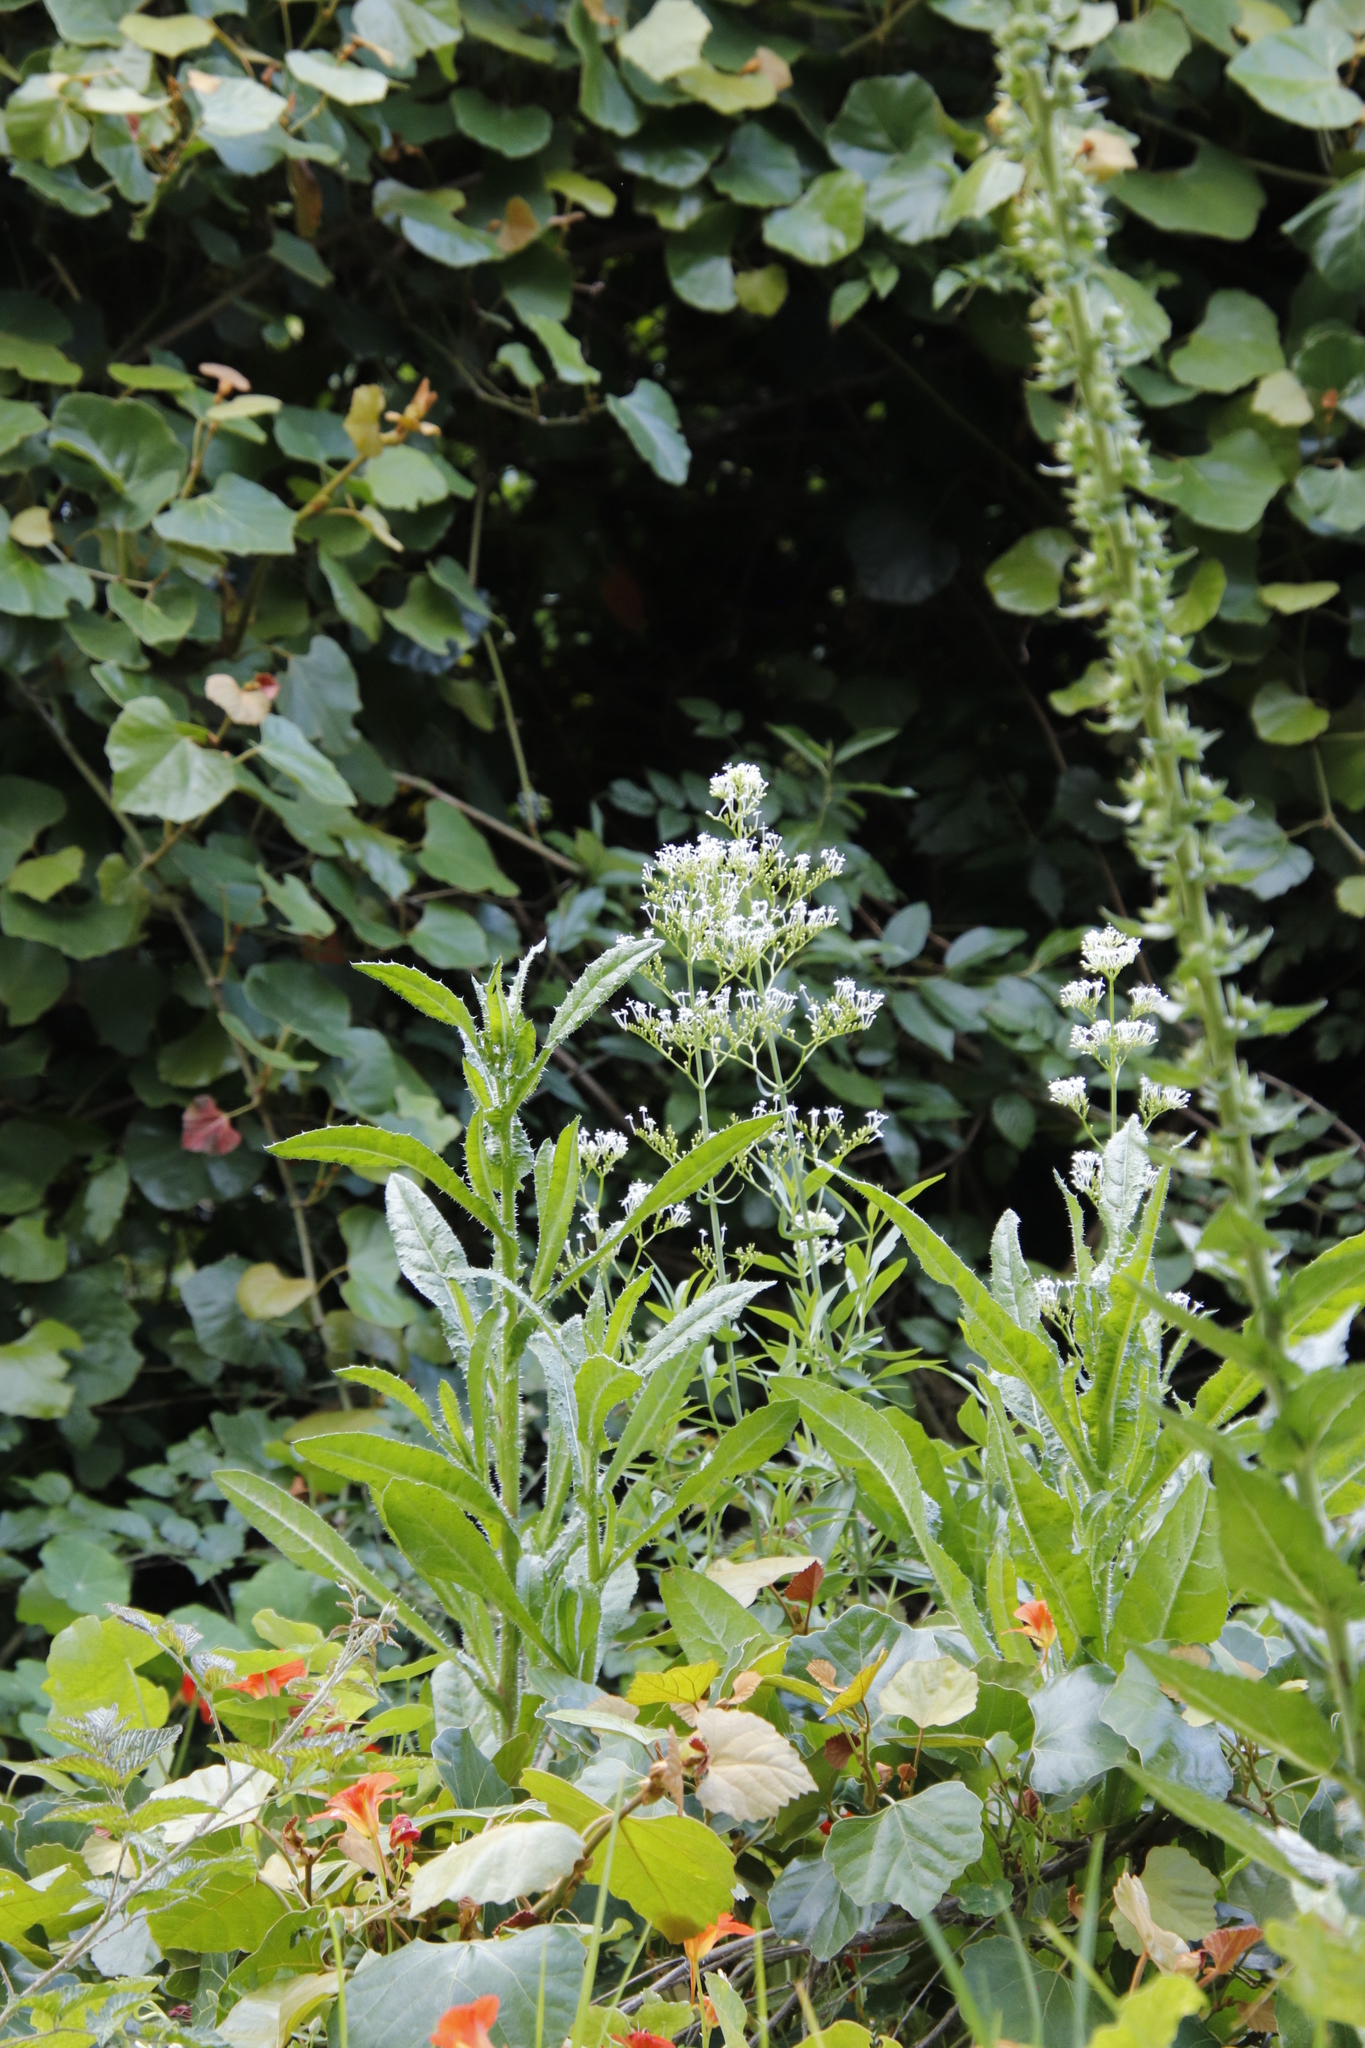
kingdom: Plantae
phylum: Tracheophyta
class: Magnoliopsida
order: Dipsacales
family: Caprifoliaceae
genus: Centranthus
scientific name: Centranthus ruber
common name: Red valerian
